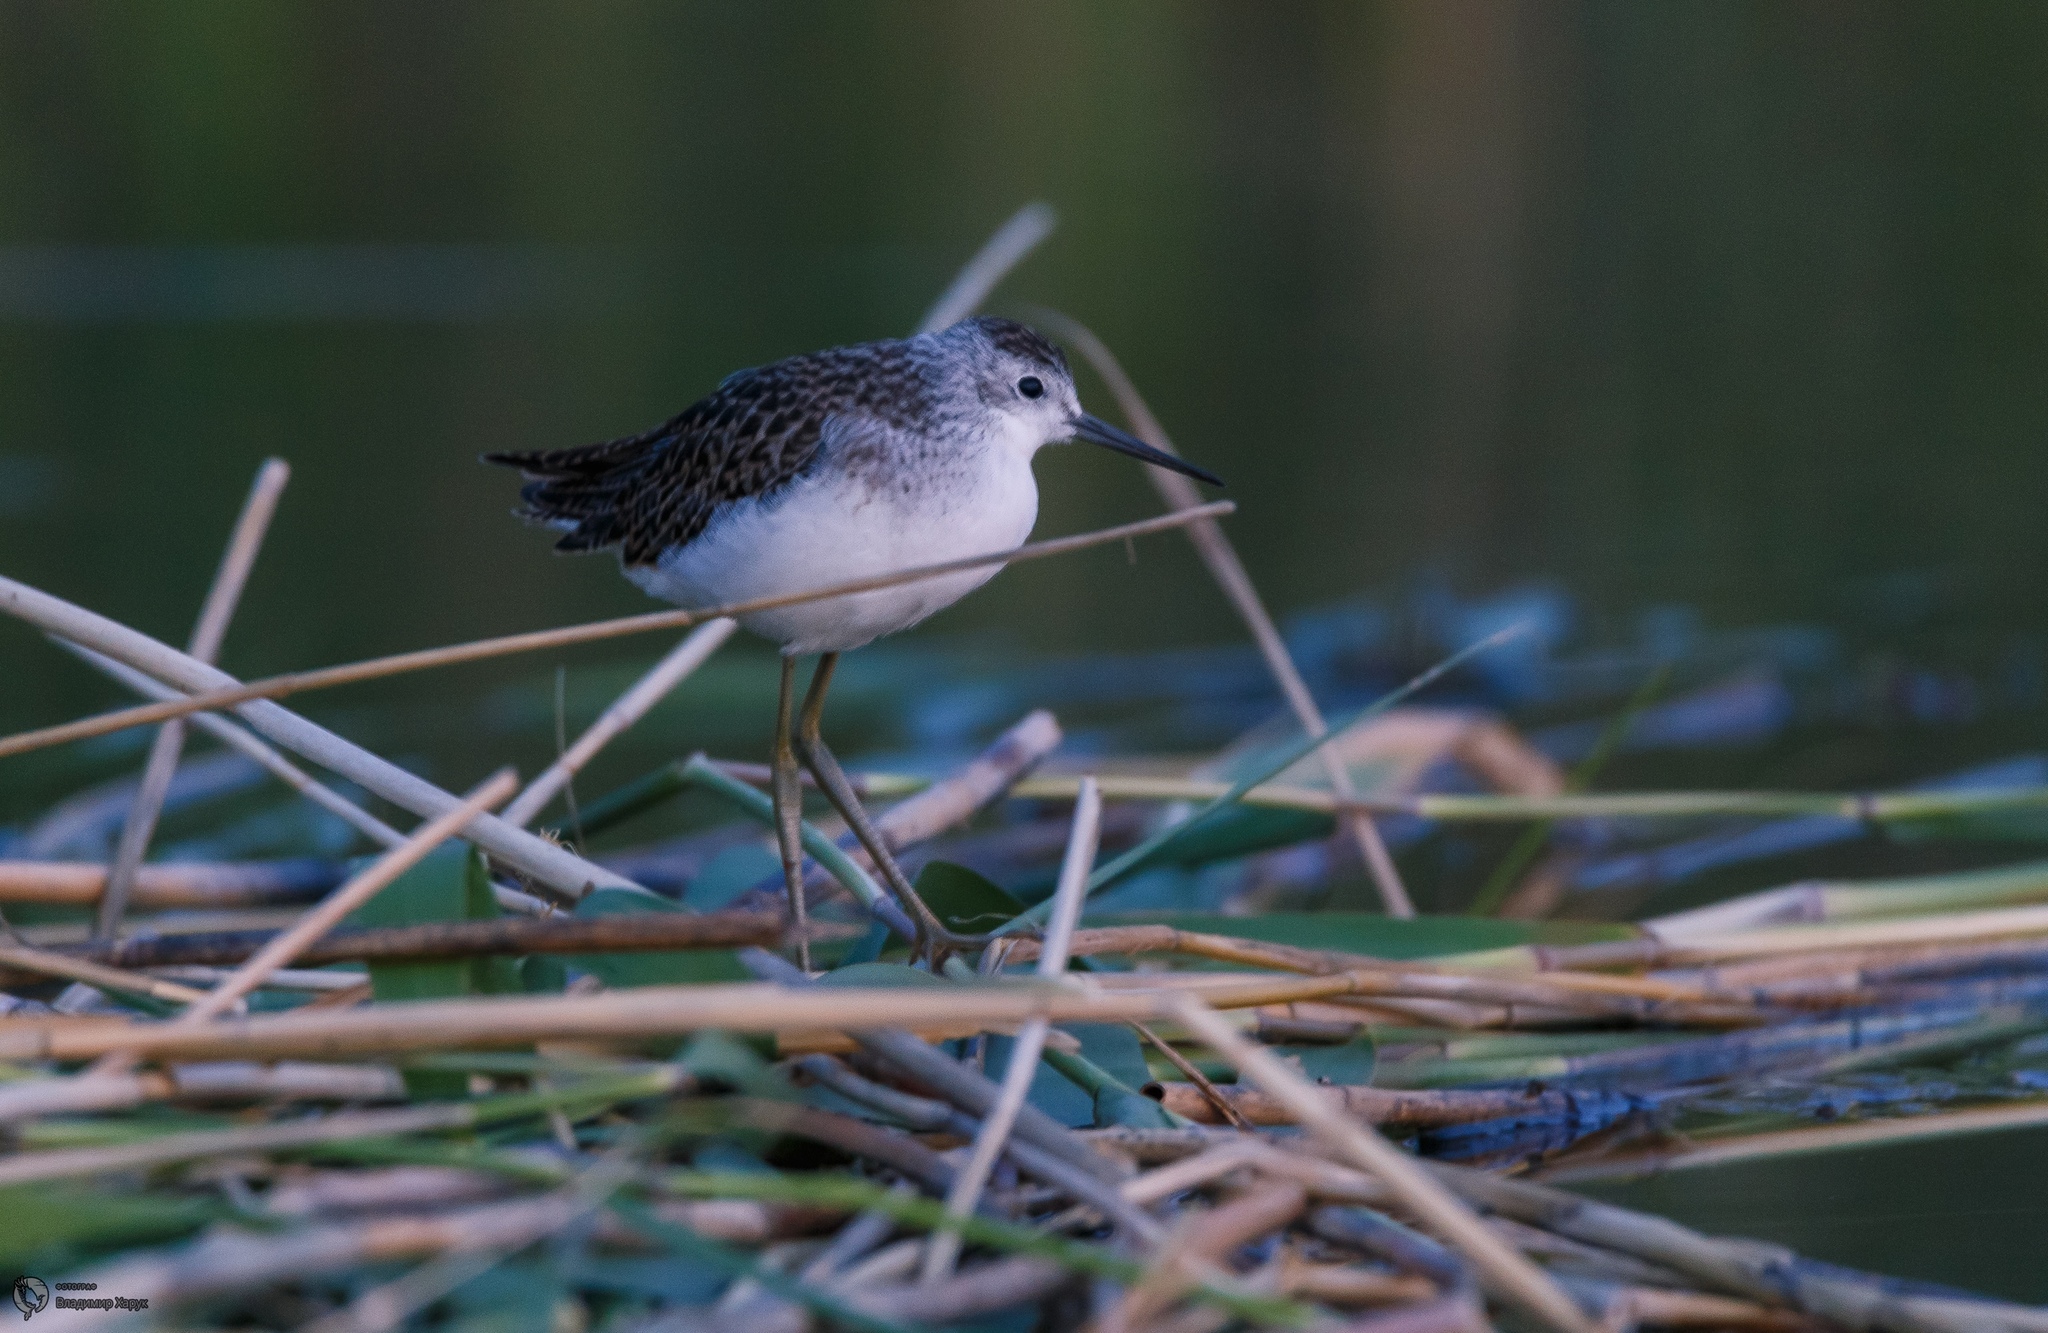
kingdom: Animalia
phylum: Chordata
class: Aves
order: Charadriiformes
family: Scolopacidae
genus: Tringa
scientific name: Tringa stagnatilis
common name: Marsh sandpiper
